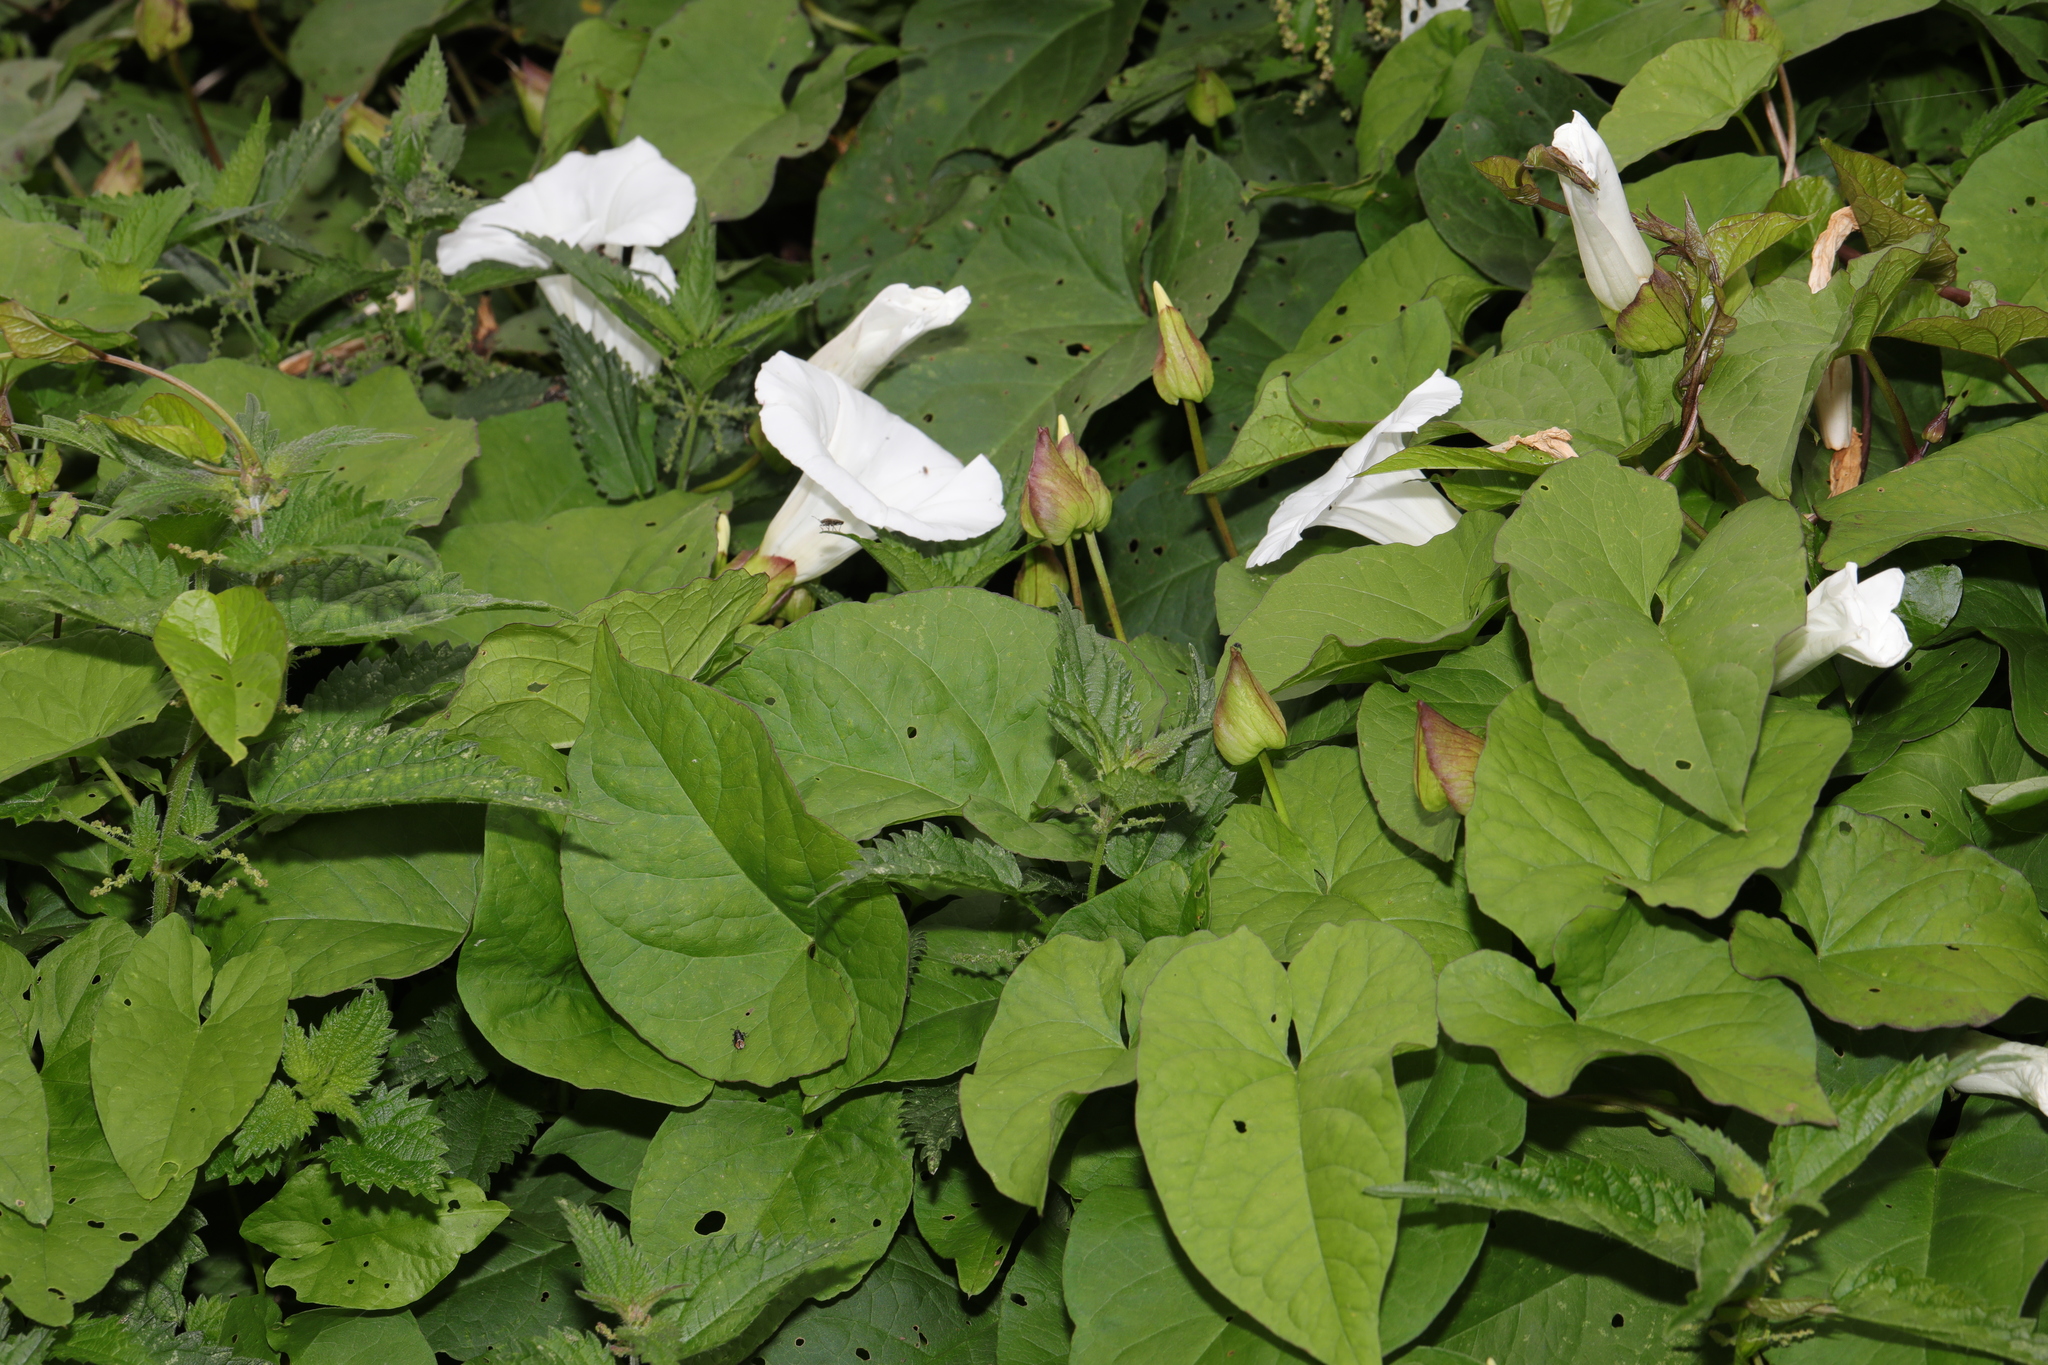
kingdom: Plantae
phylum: Tracheophyta
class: Magnoliopsida
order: Solanales
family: Convolvulaceae
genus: Calystegia
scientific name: Calystegia silvatica
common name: Large bindweed
